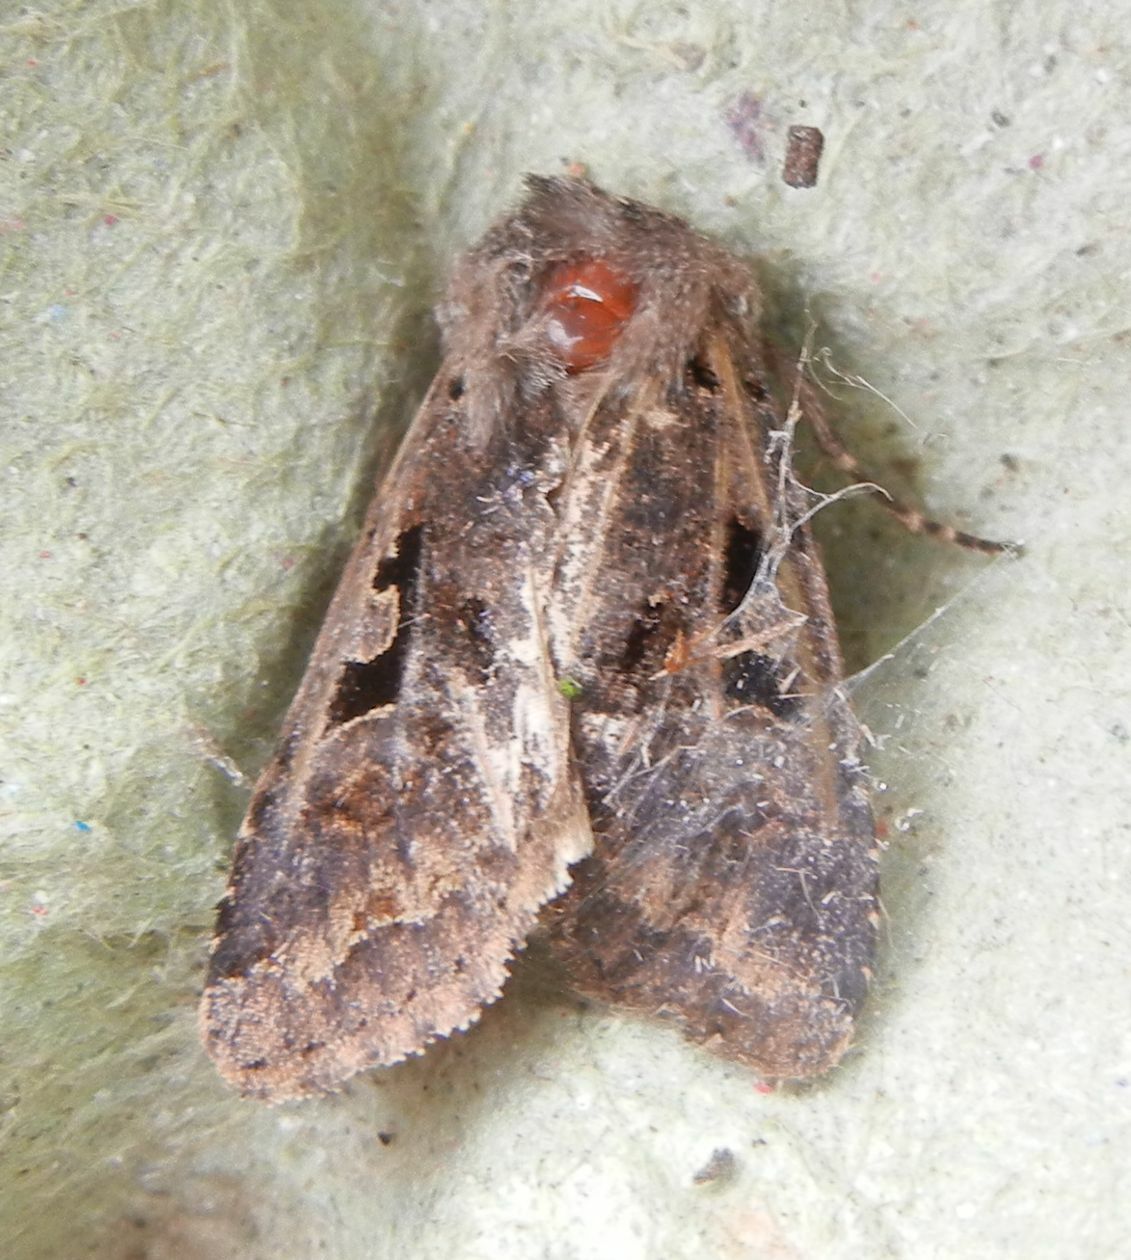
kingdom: Animalia
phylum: Arthropoda
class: Insecta
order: Lepidoptera
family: Noctuidae
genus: Orthosia
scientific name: Orthosia gothica
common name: Hebrew character
